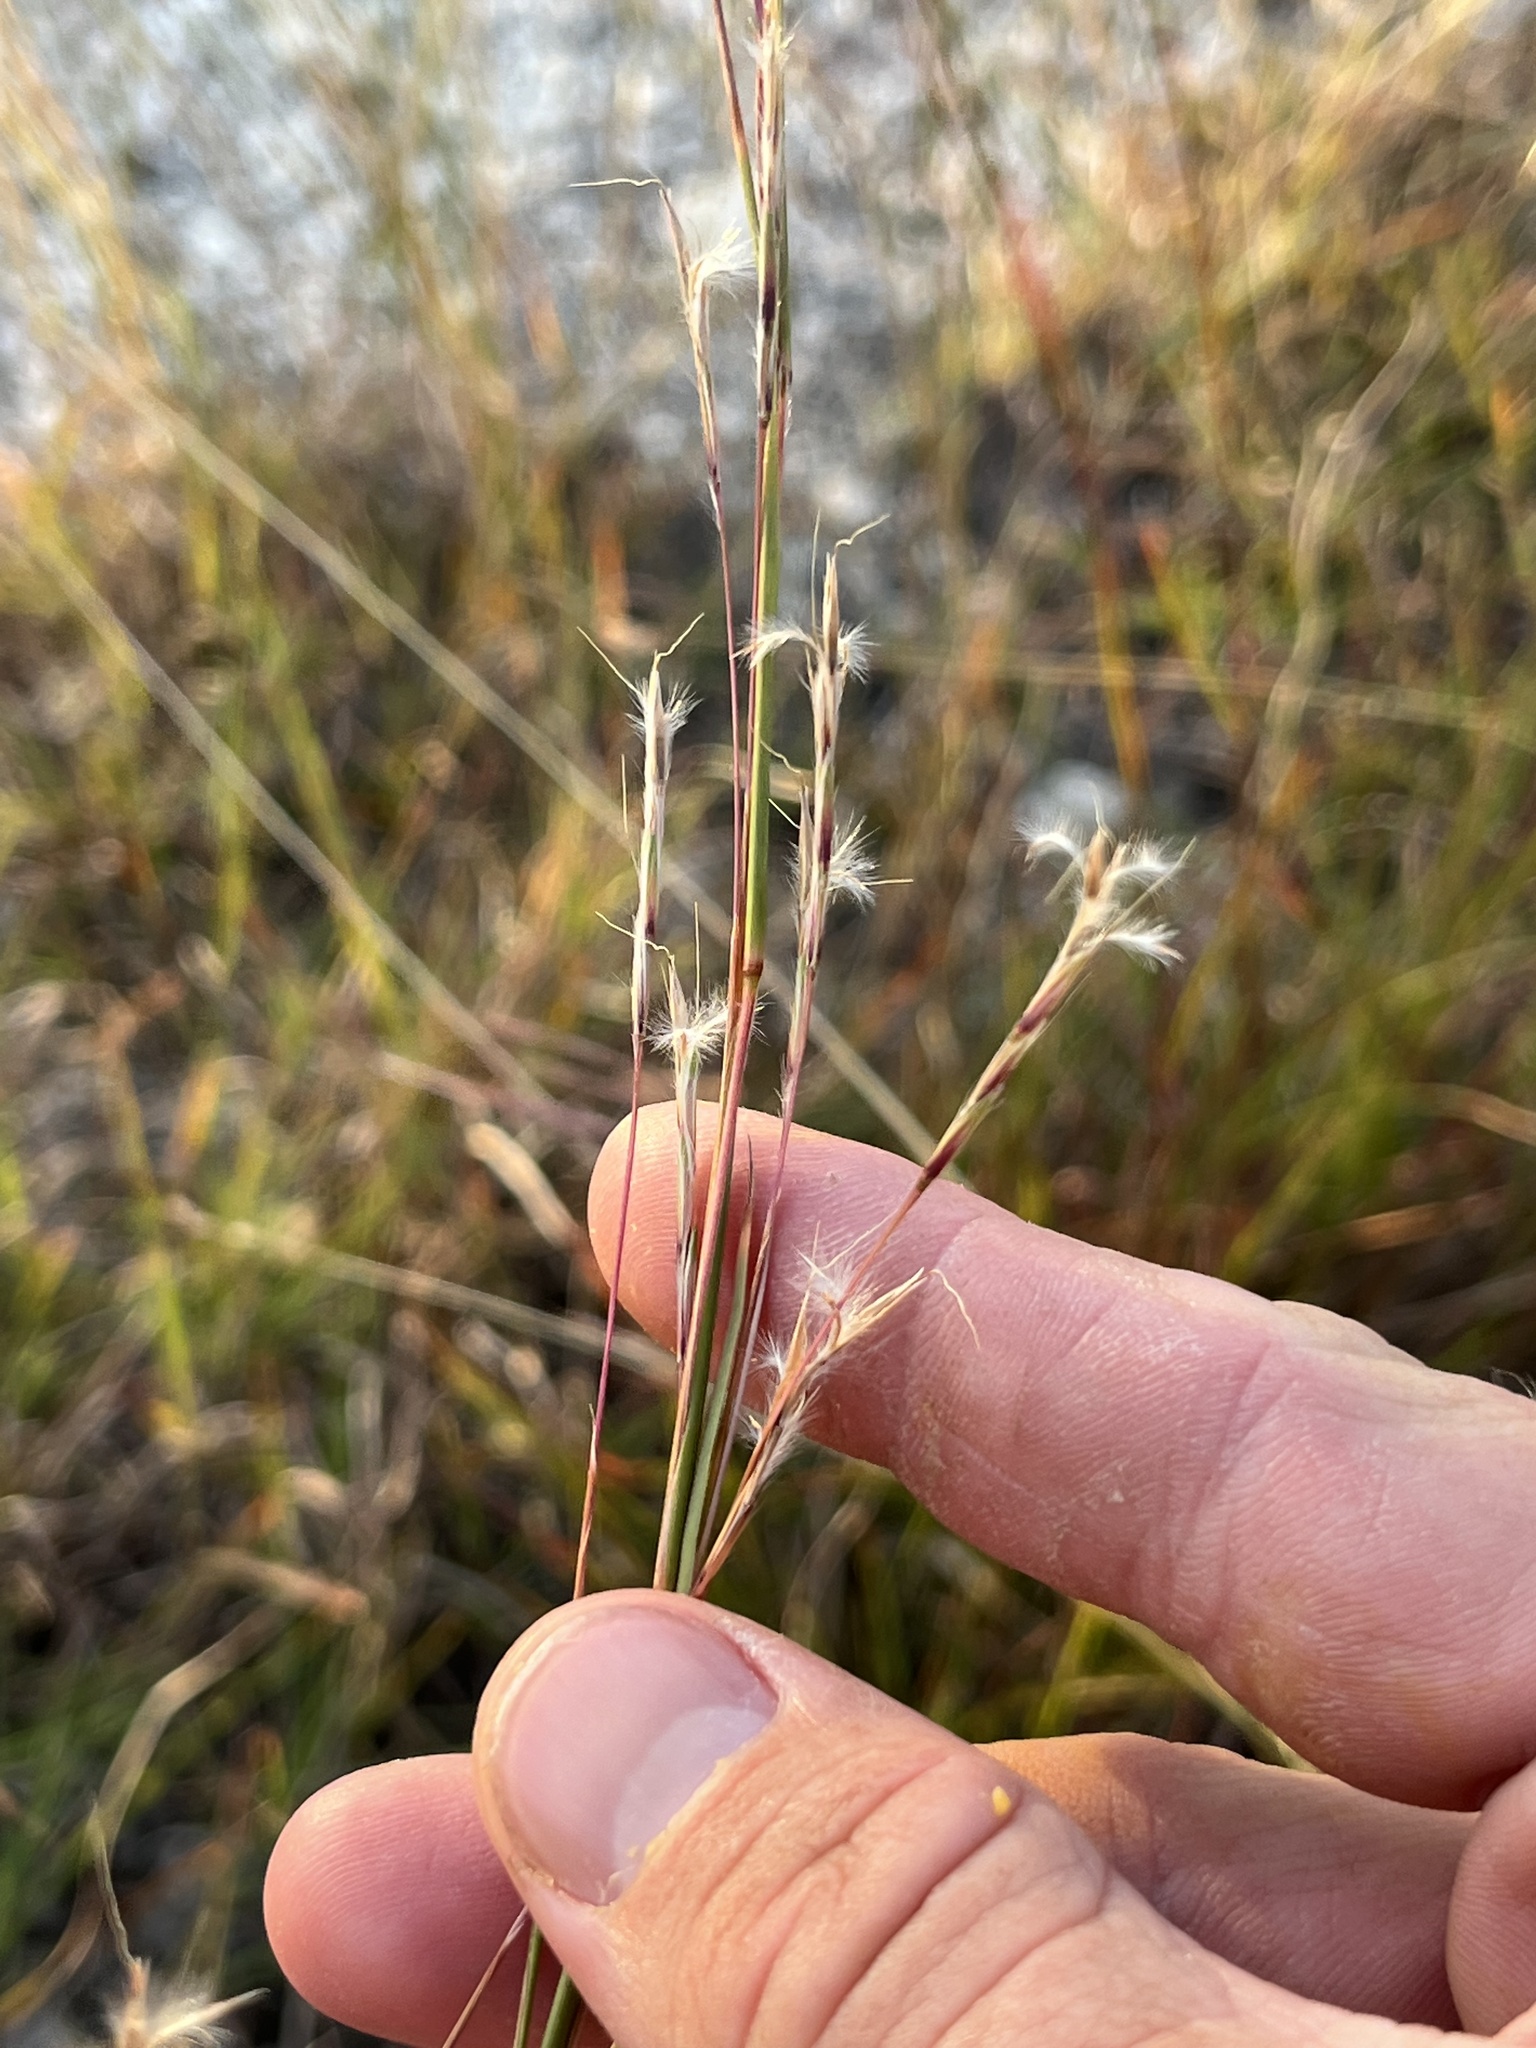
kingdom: Plantae
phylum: Tracheophyta
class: Liliopsida
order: Poales
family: Poaceae
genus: Schizachyrium
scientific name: Schizachyrium scoparium
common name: Little bluestem
